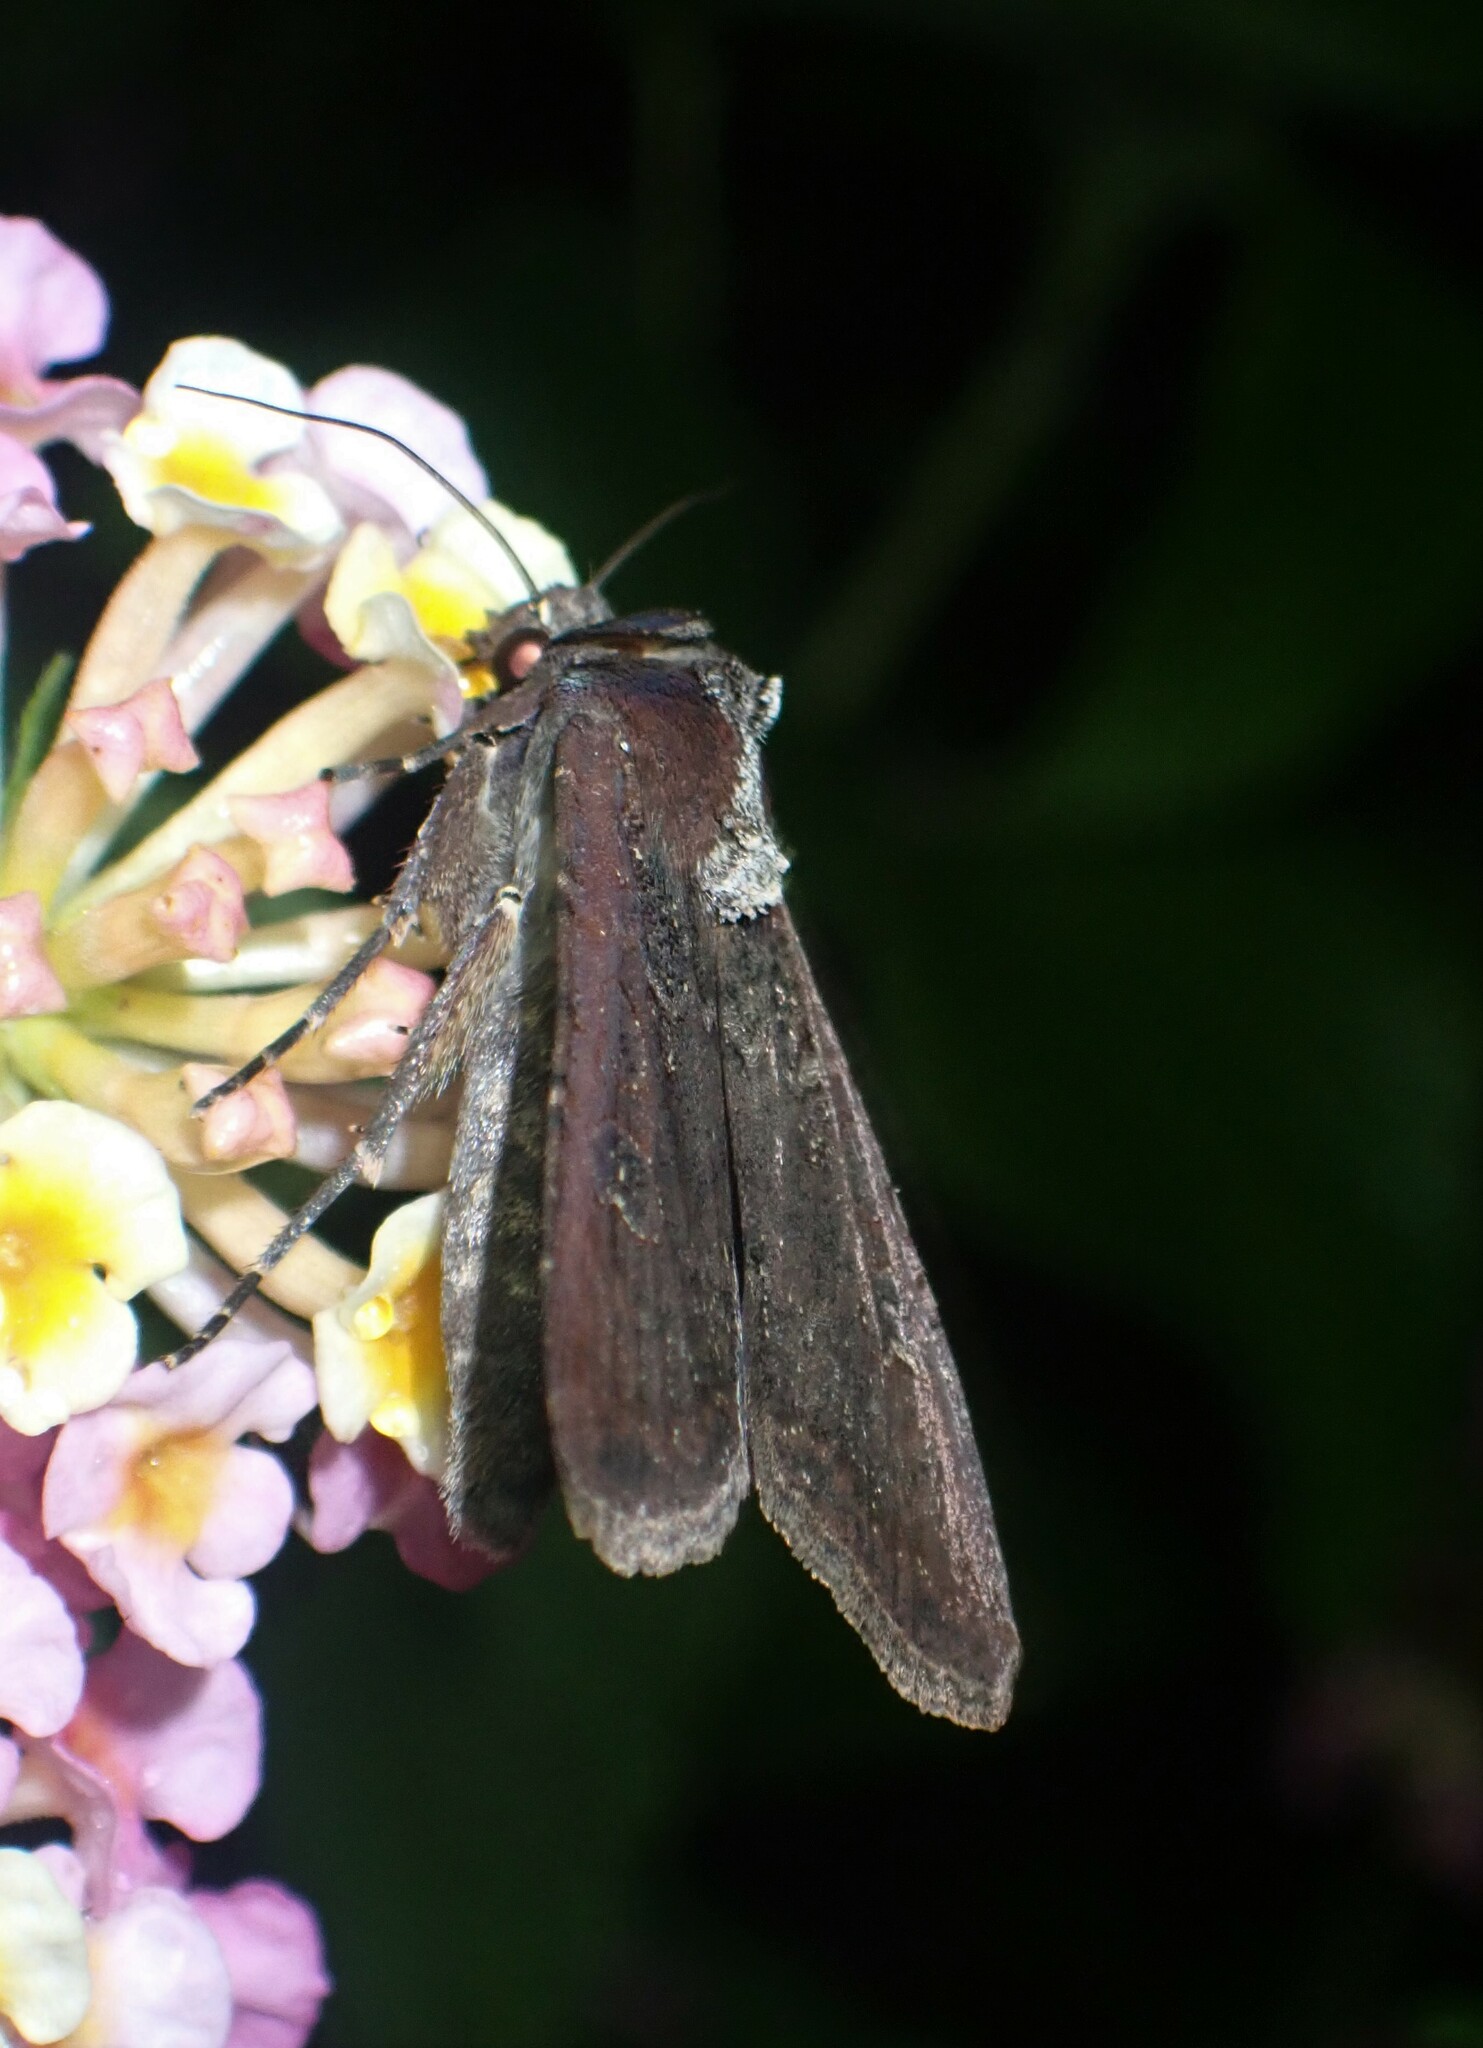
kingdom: Animalia
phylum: Arthropoda
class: Insecta
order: Lepidoptera
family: Noctuidae
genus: Peridroma
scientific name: Peridroma saucia
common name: Pearly underwing
